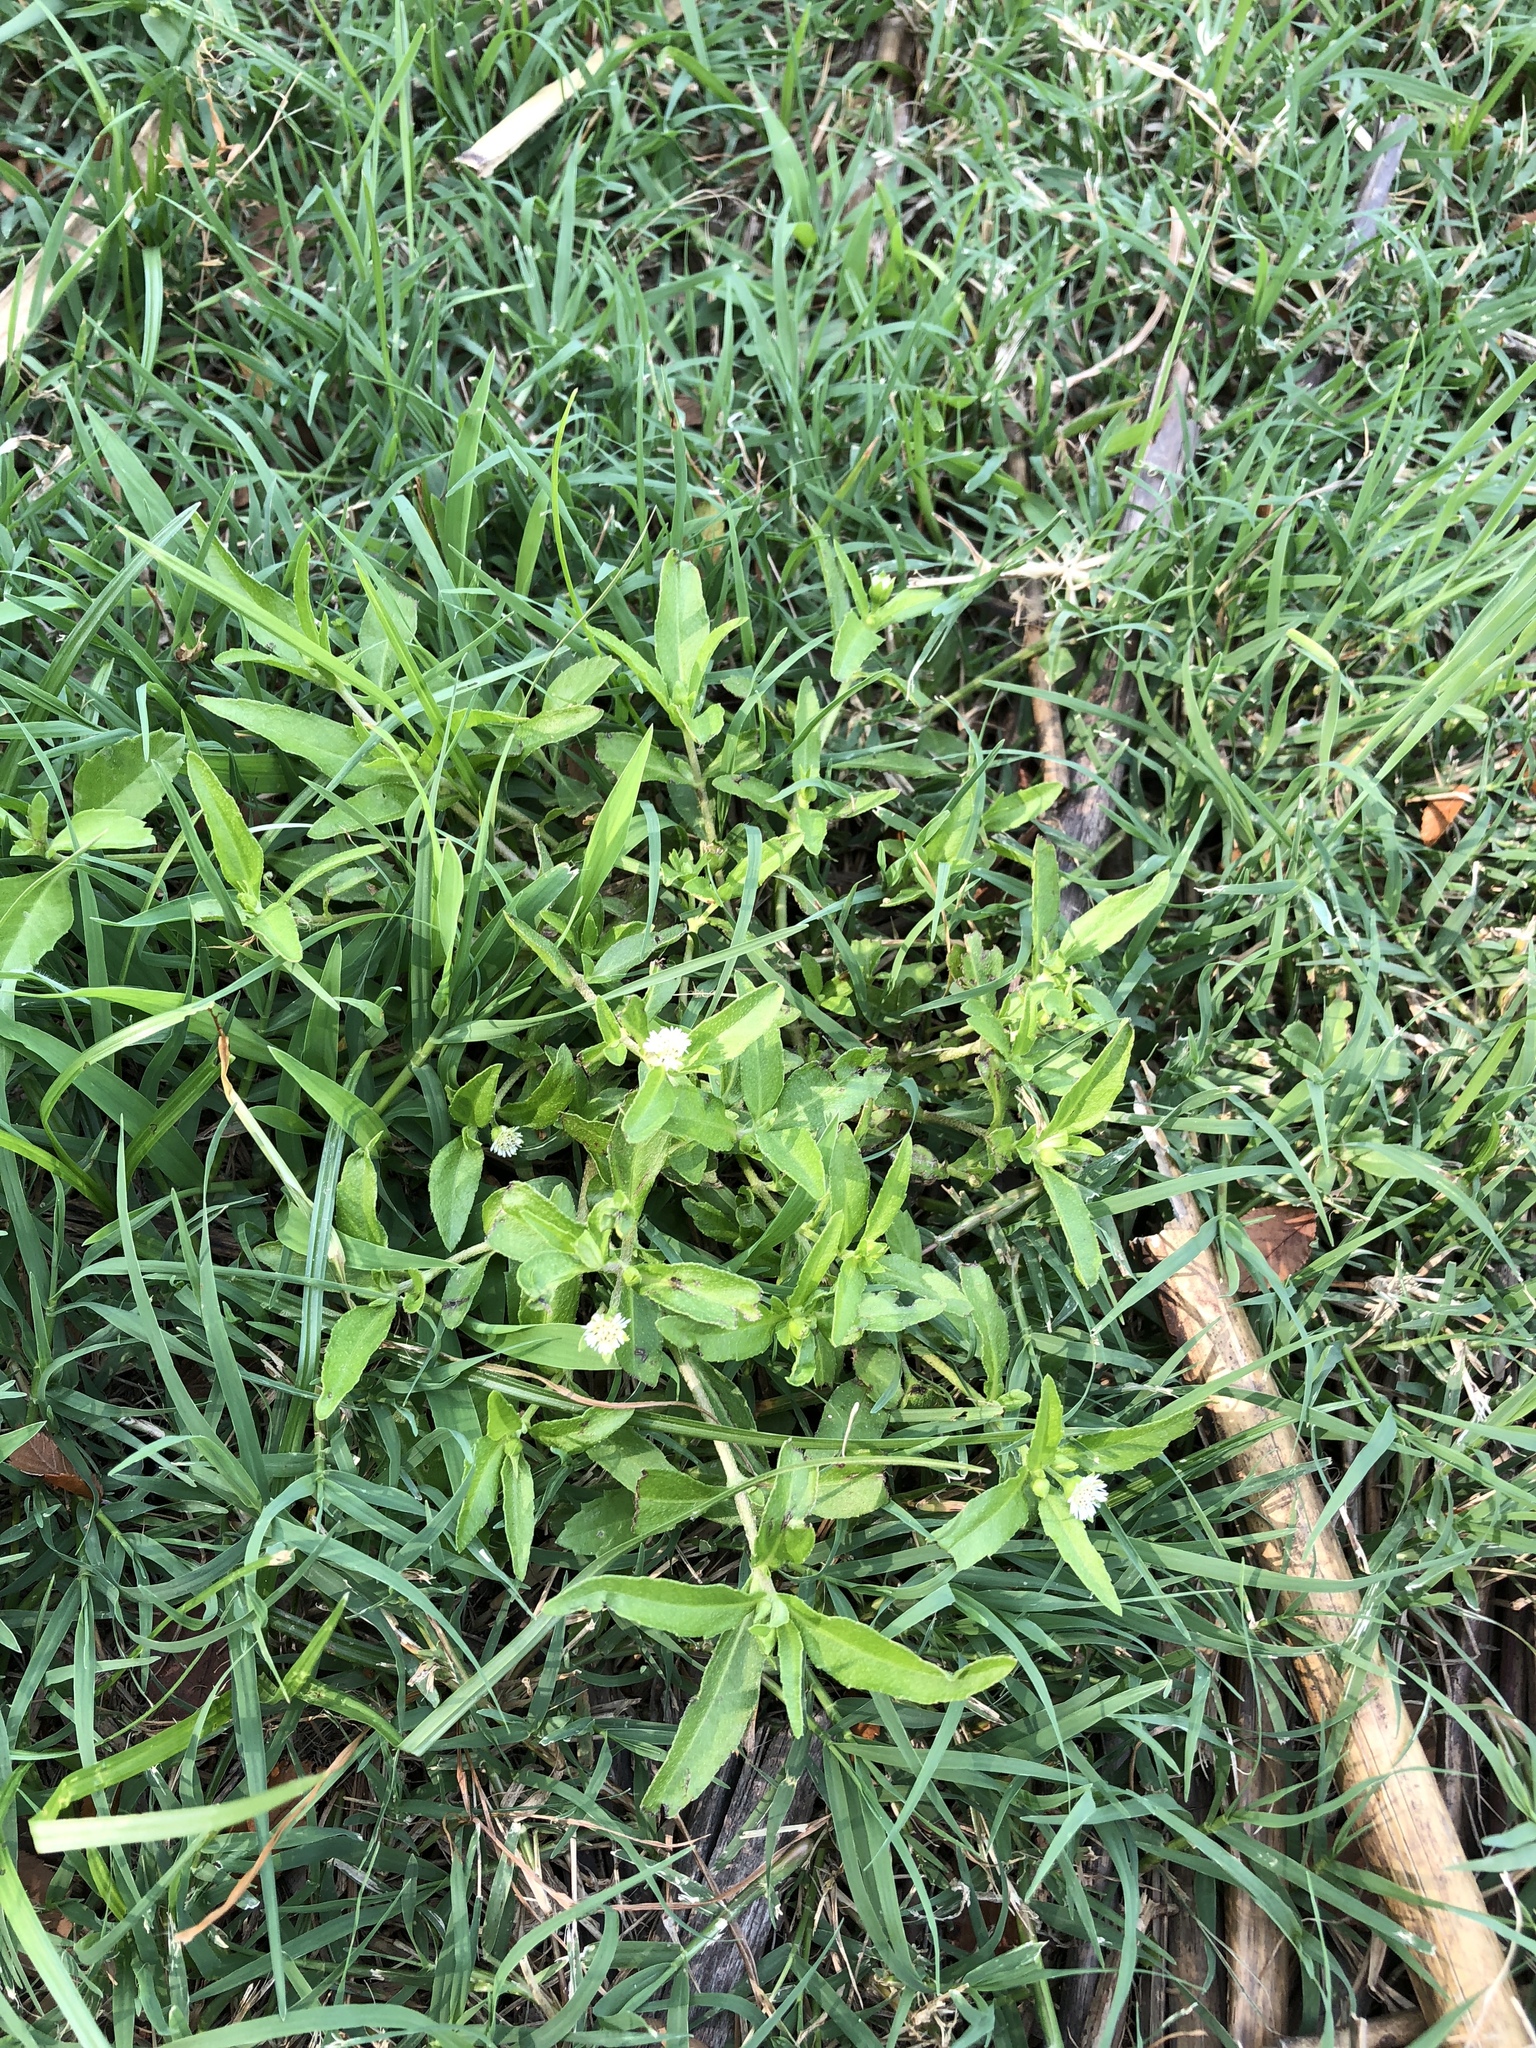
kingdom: Plantae
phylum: Tracheophyta
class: Magnoliopsida
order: Asterales
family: Asteraceae
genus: Eclipta
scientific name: Eclipta prostrata
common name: False daisy
